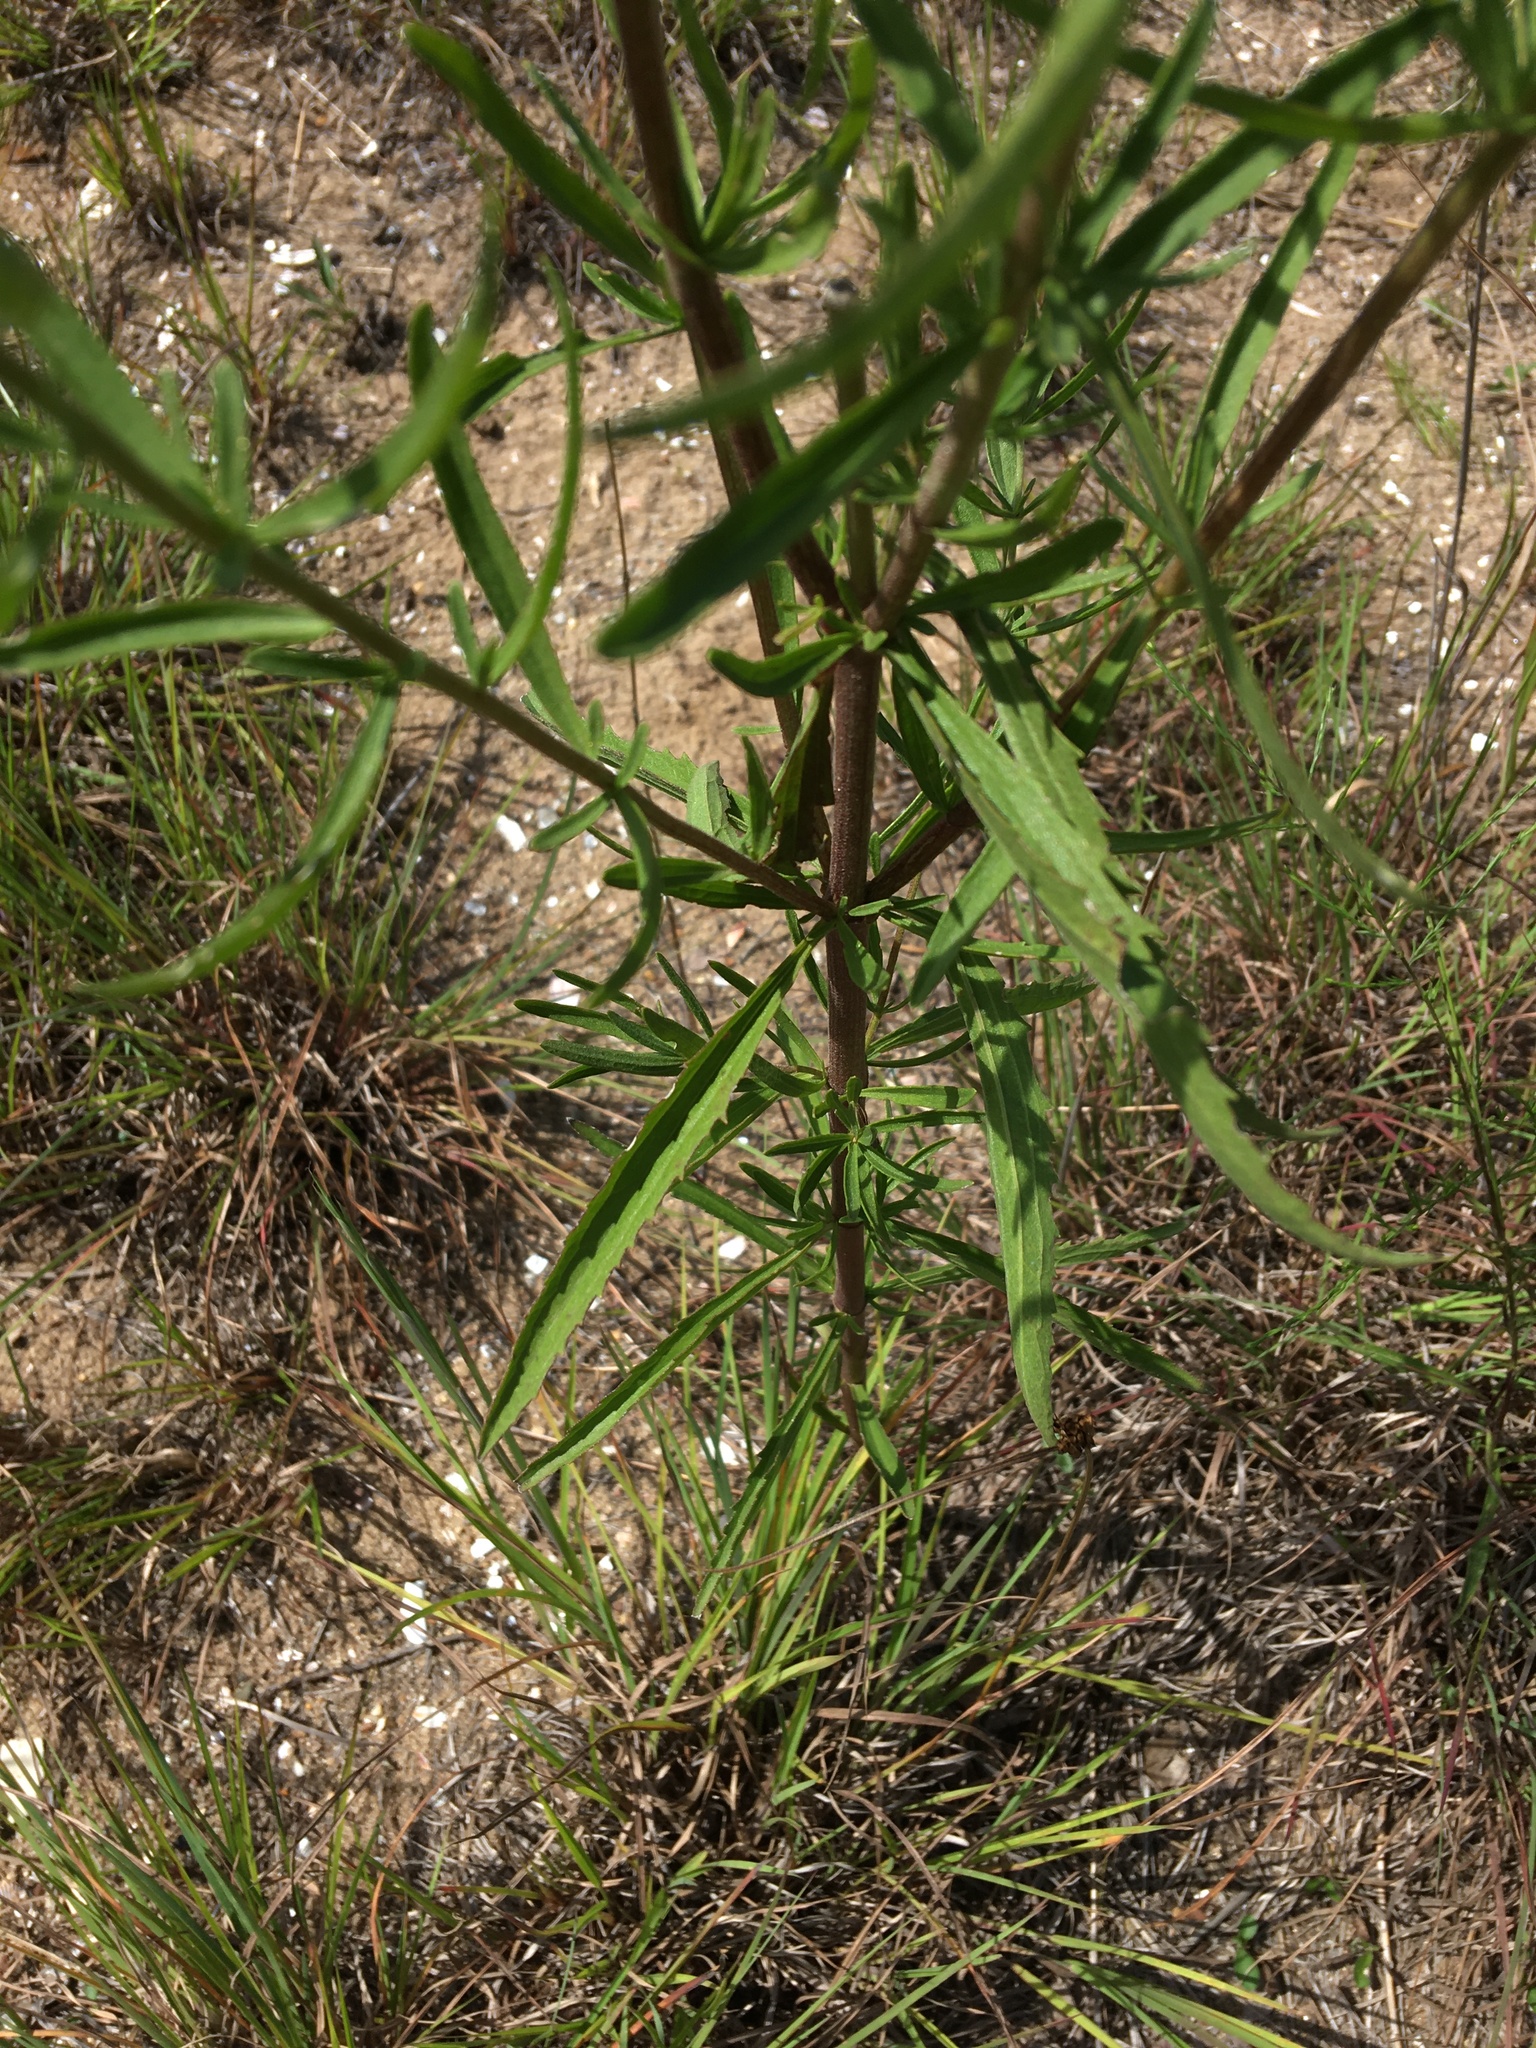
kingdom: Plantae
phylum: Tracheophyta
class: Magnoliopsida
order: Asterales
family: Asteraceae
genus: Eupatorium
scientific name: Eupatorium torreyanum
